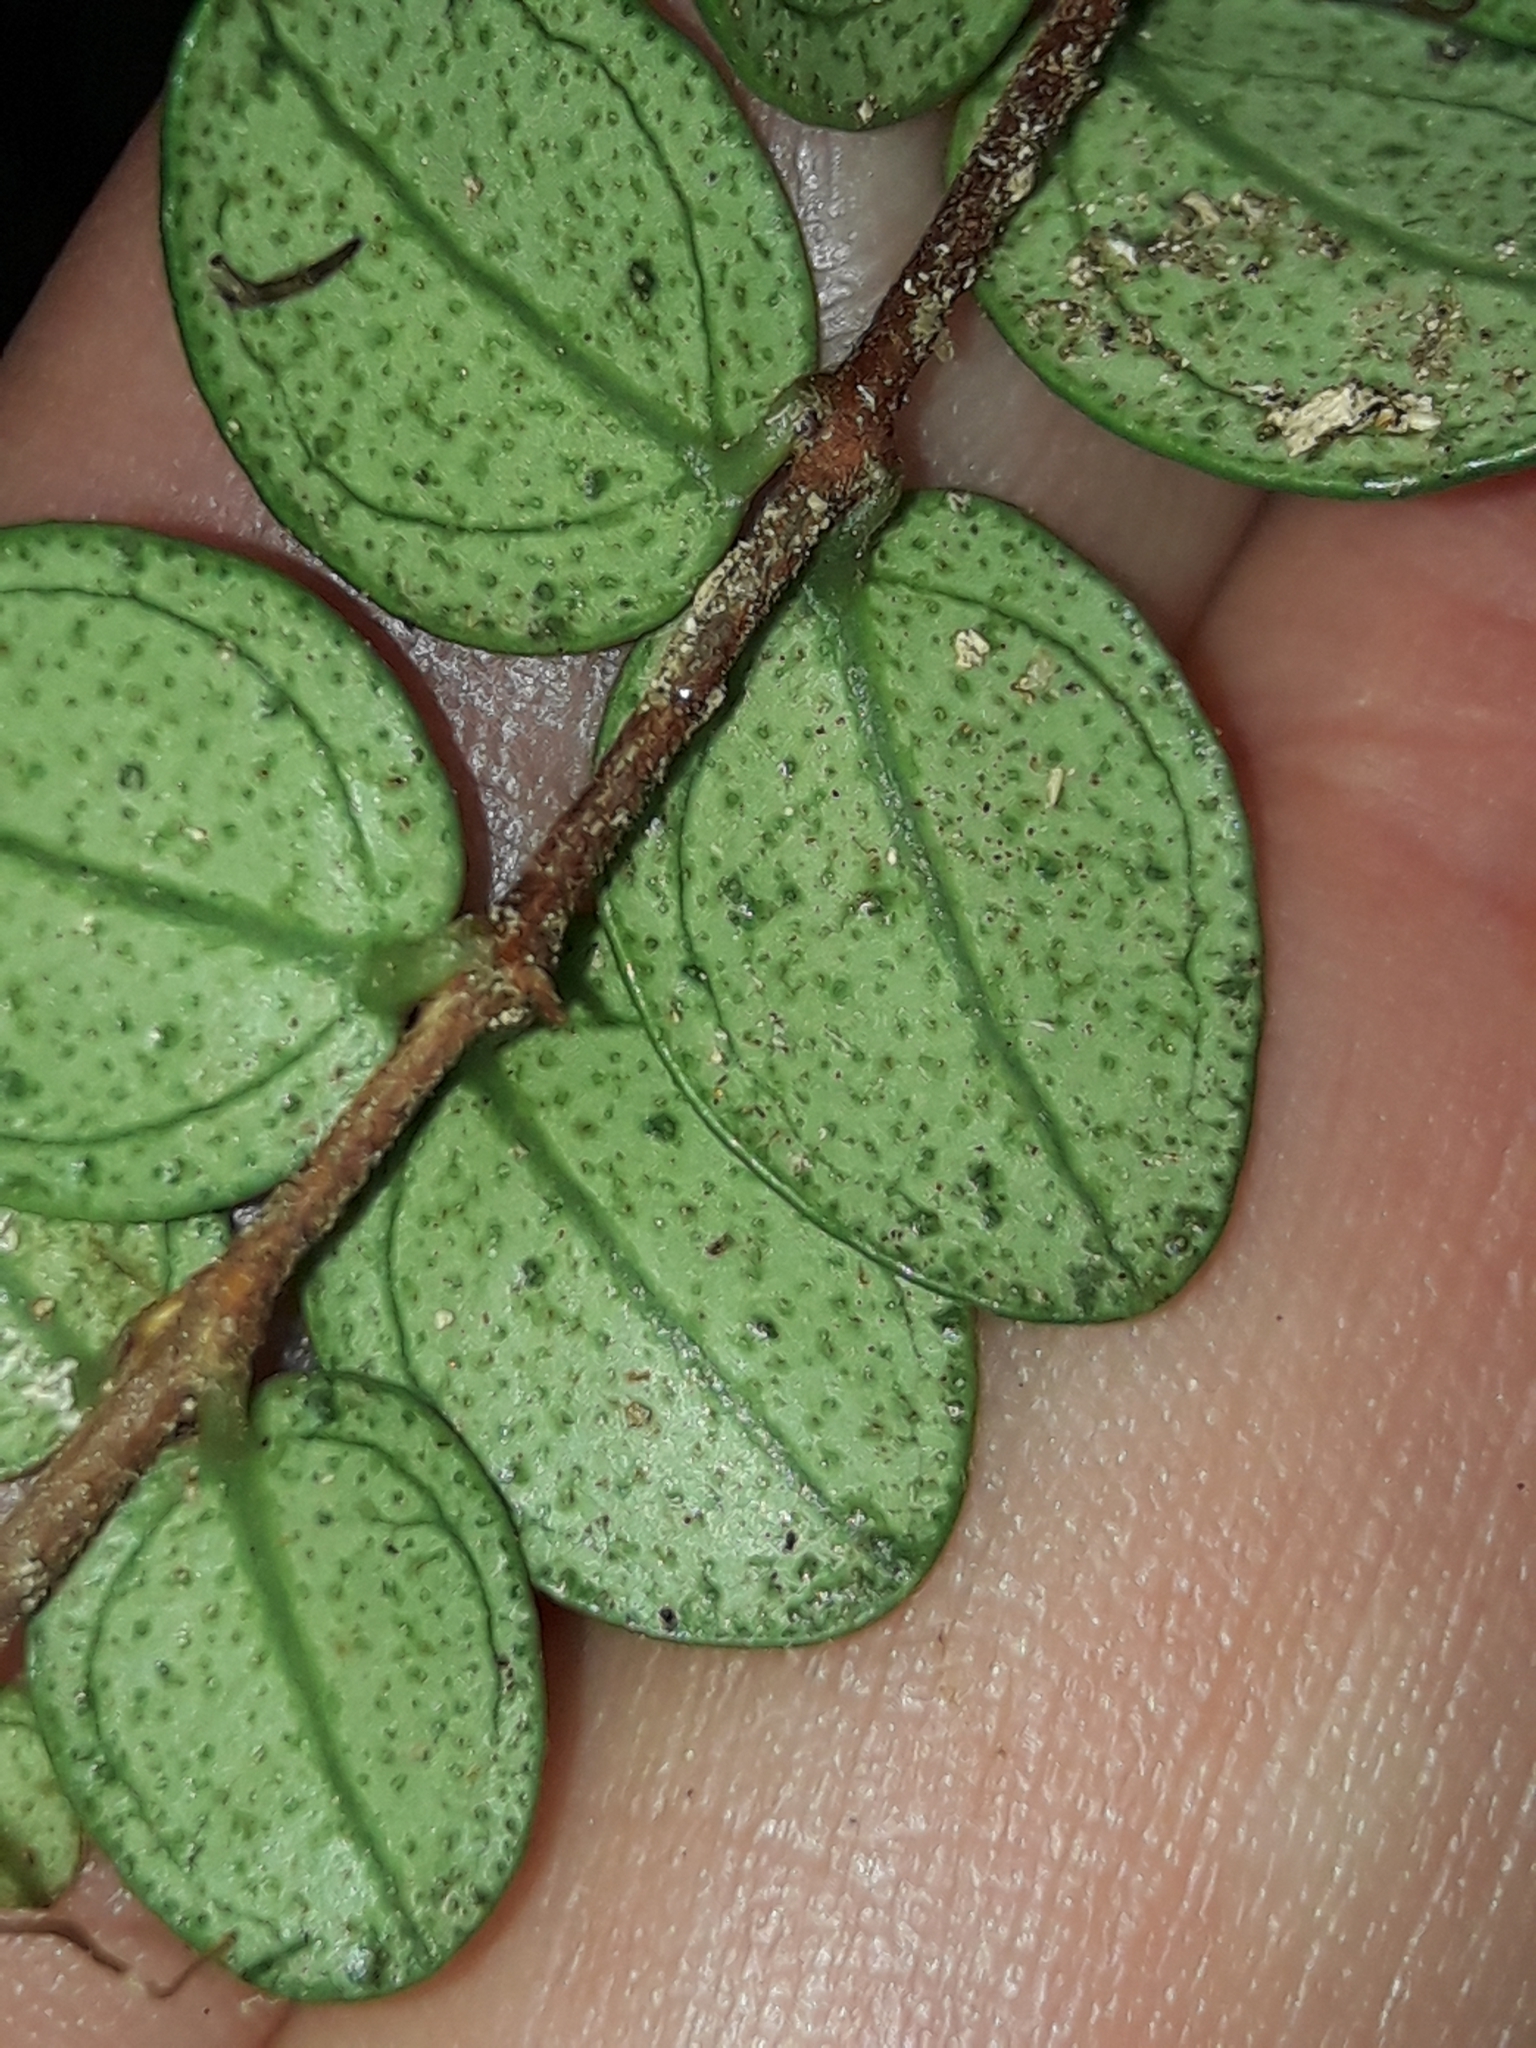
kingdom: Plantae
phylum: Tracheophyta
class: Magnoliopsida
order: Myrtales
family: Myrtaceae
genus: Metrosideros
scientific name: Metrosideros perforata
